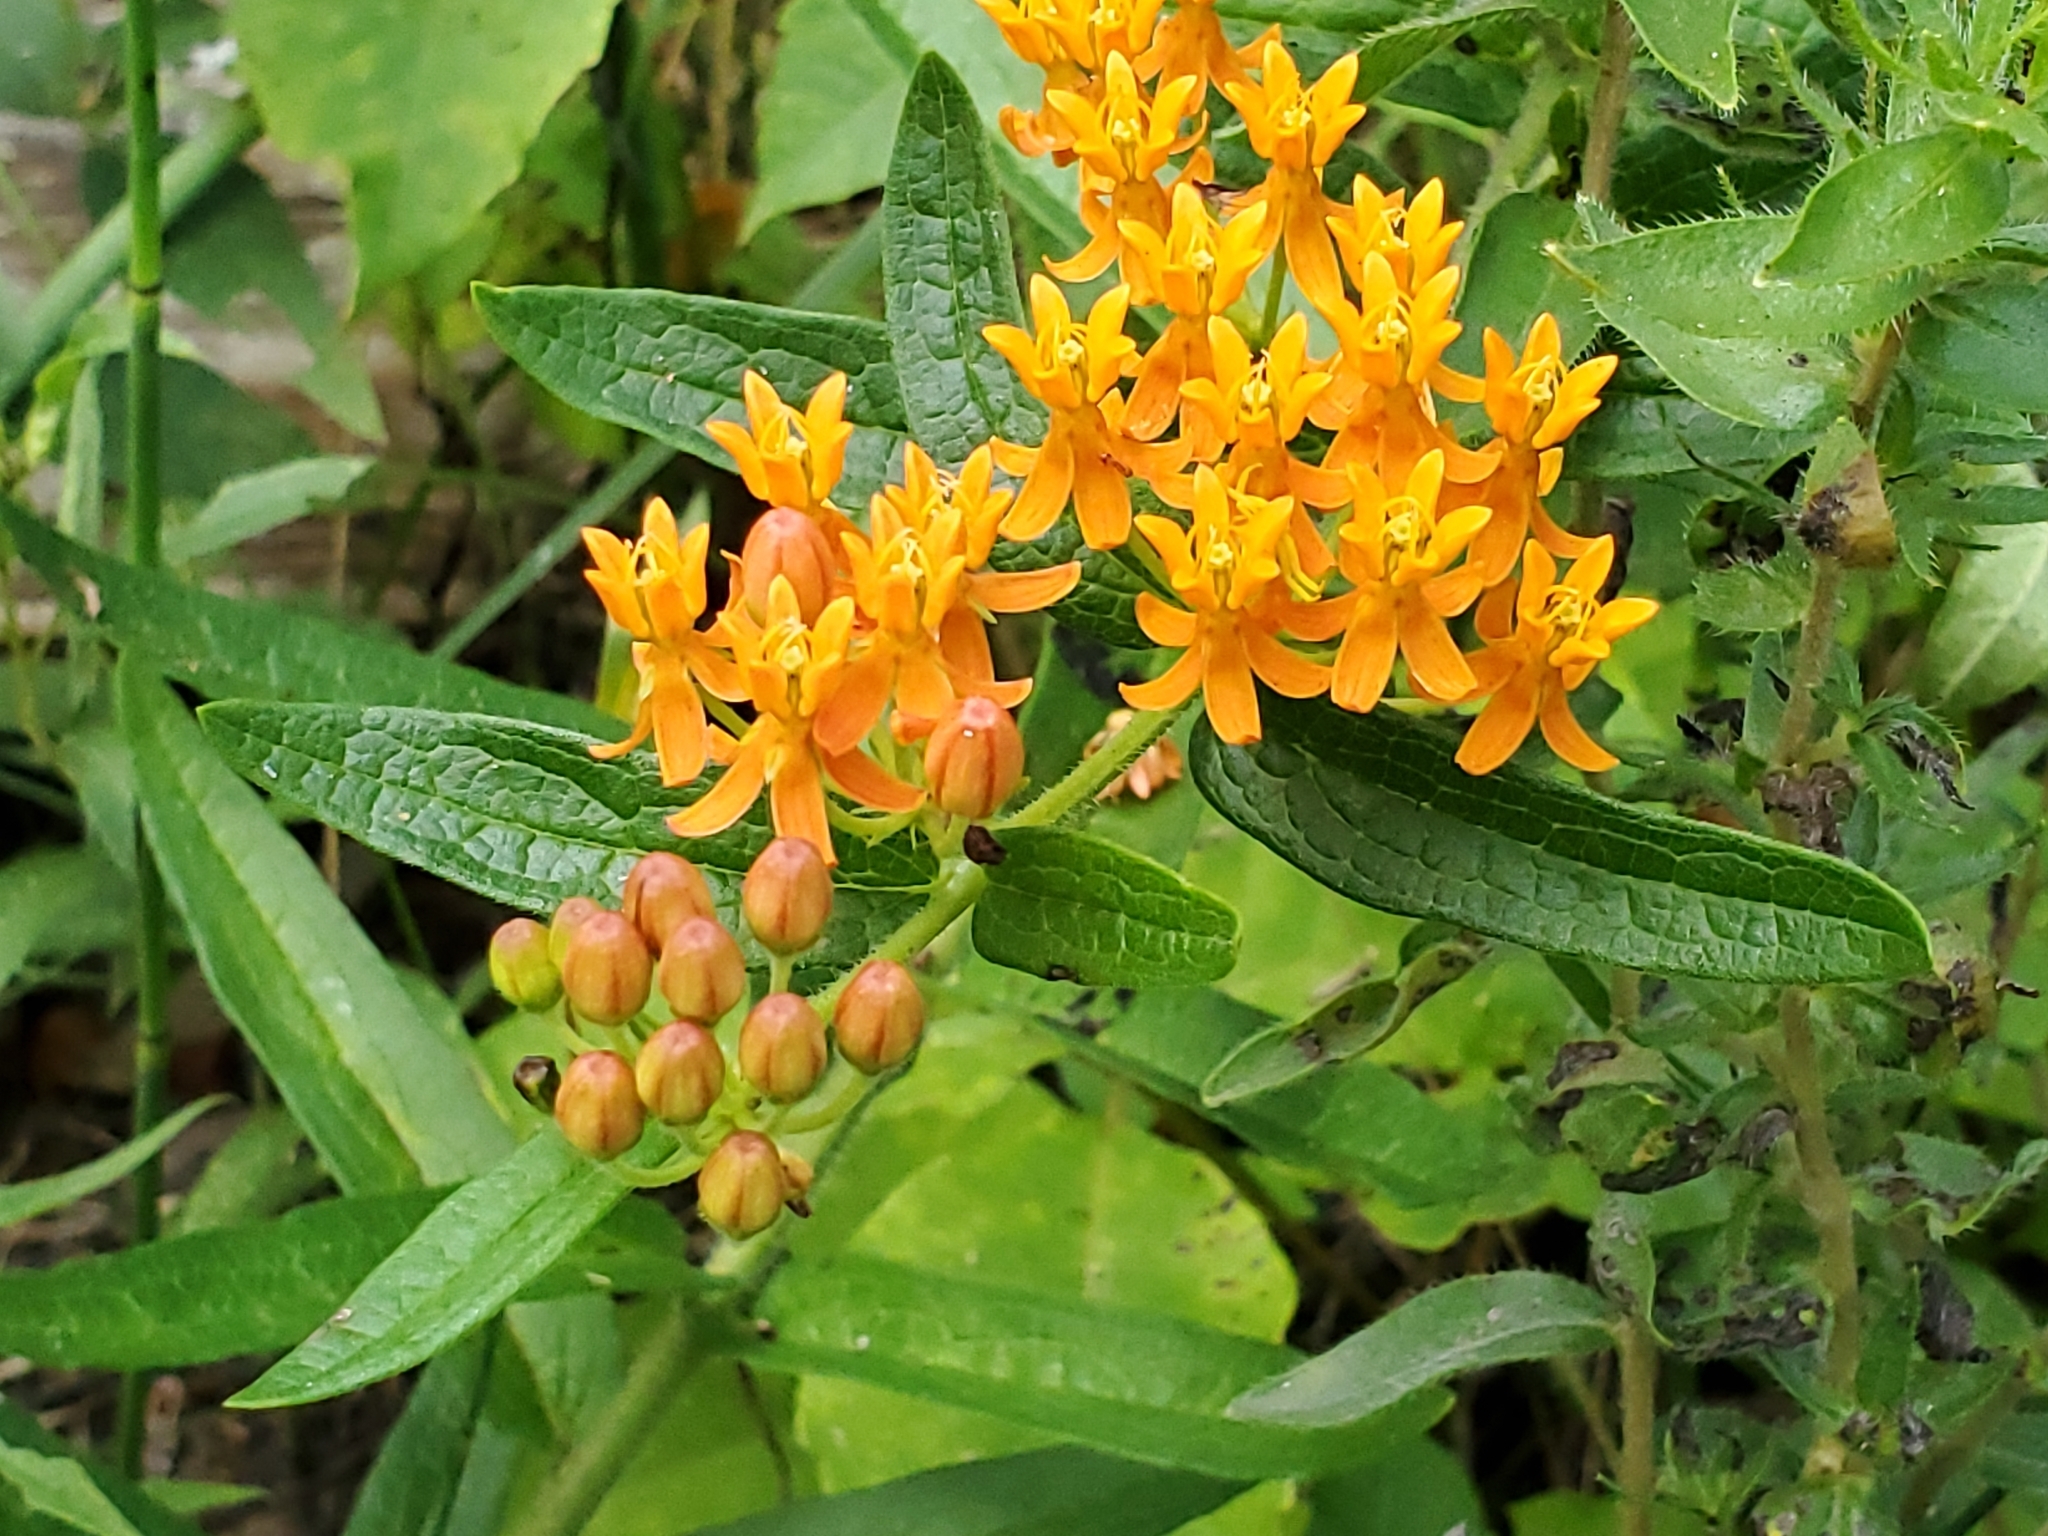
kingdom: Plantae
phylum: Tracheophyta
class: Magnoliopsida
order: Gentianales
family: Apocynaceae
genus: Asclepias
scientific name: Asclepias tuberosa
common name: Butterfly milkweed
